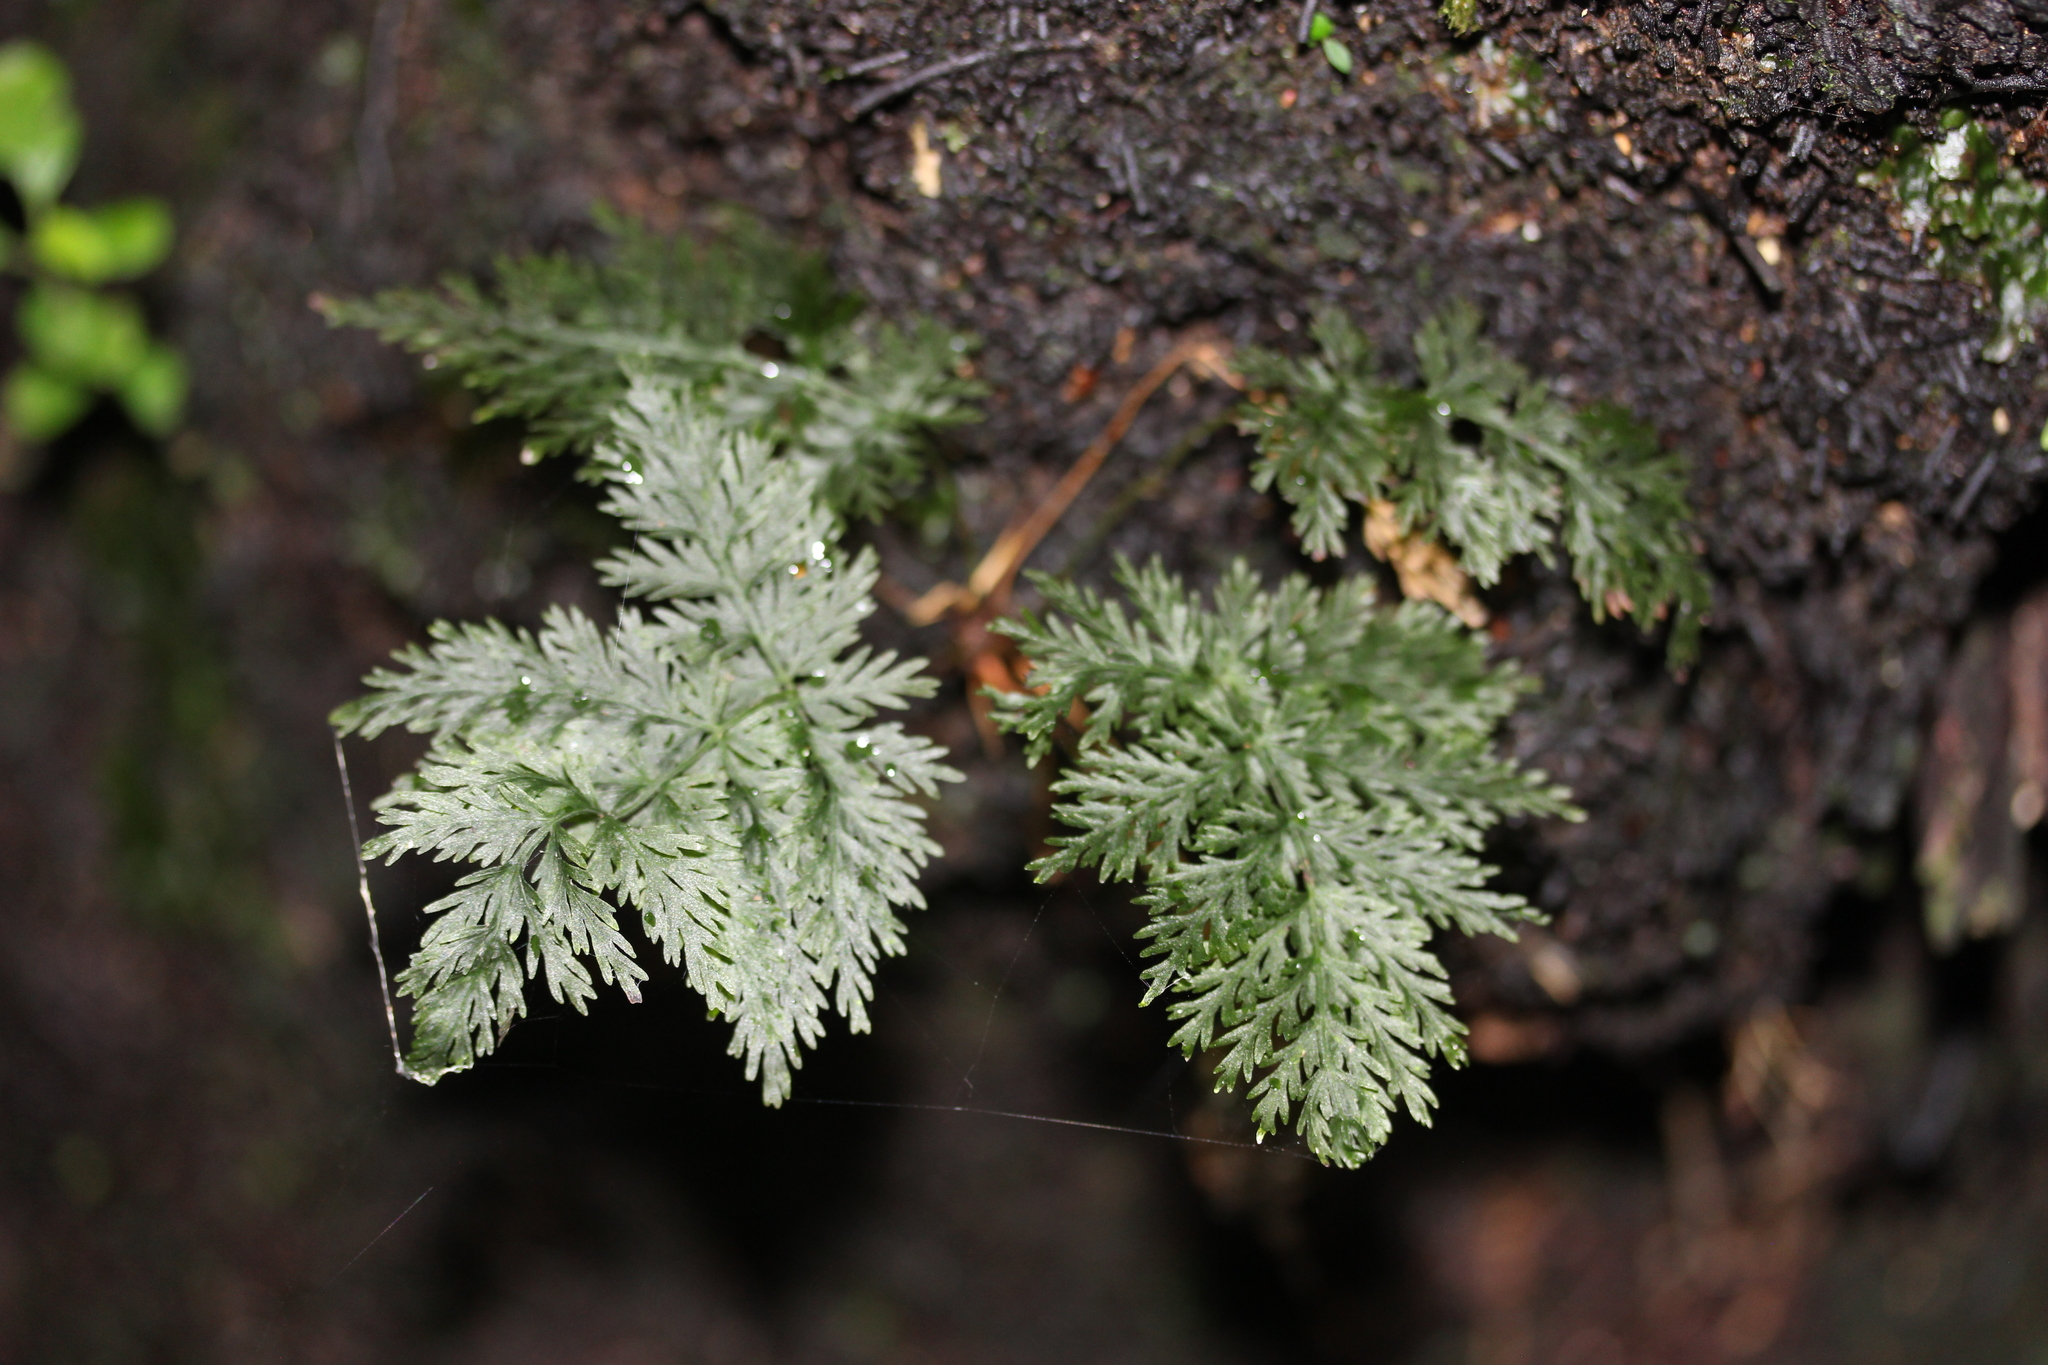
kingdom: Plantae
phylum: Tracheophyta
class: Polypodiopsida
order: Osmundales
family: Osmundaceae
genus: Leptopteris
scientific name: Leptopteris hymenophylloides
